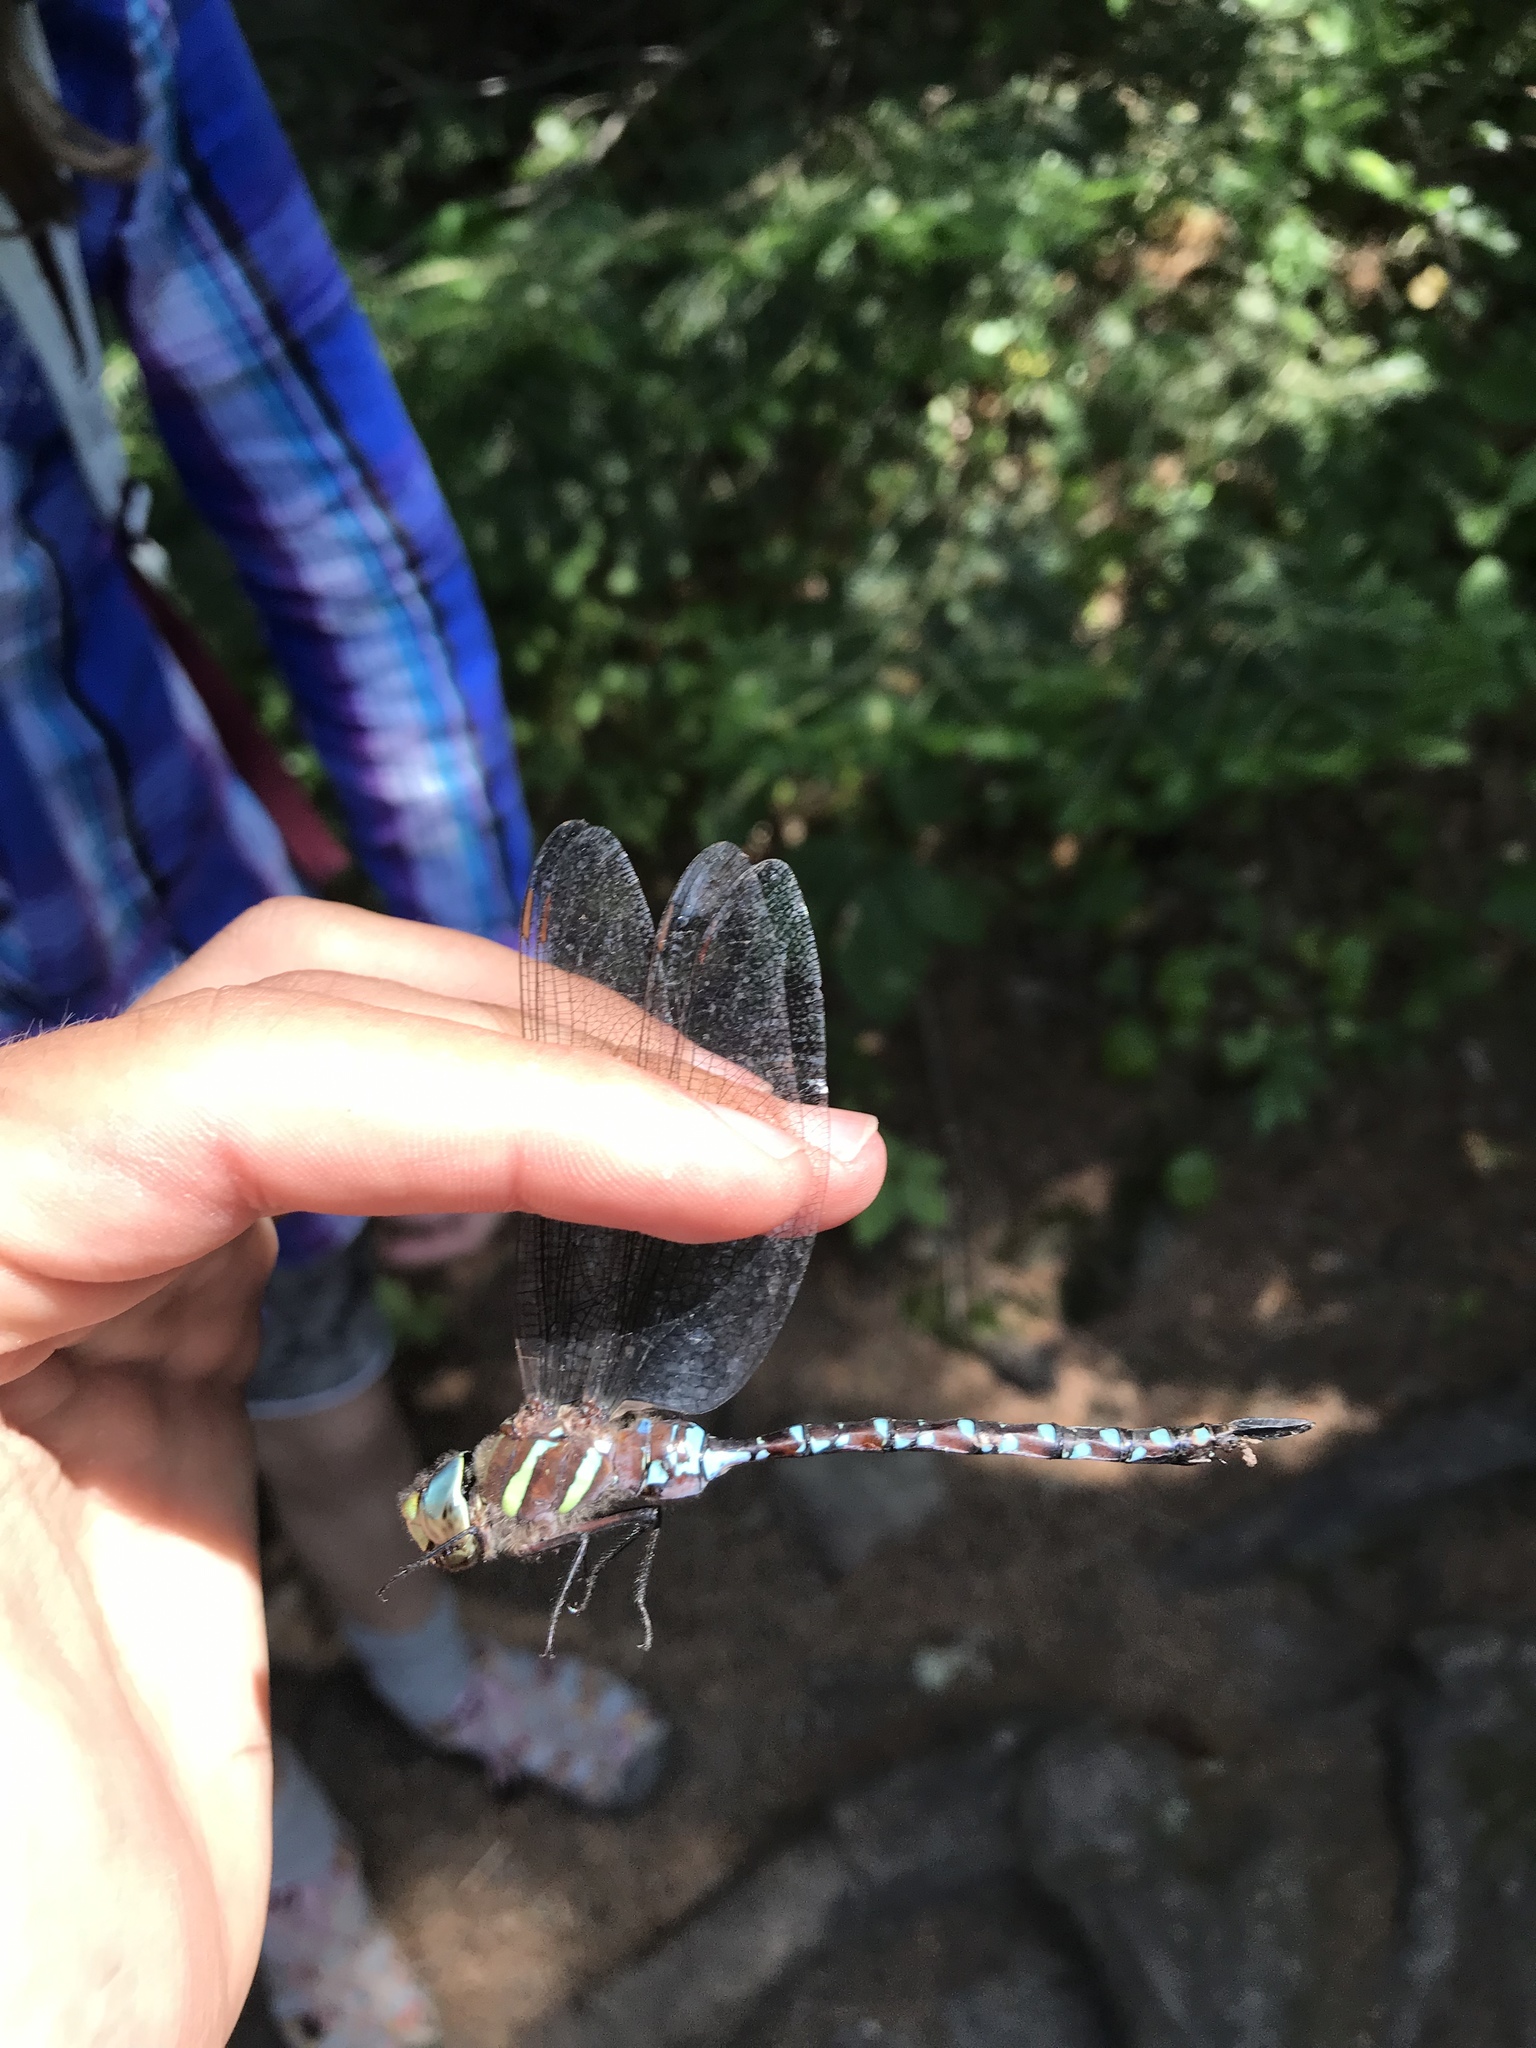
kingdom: Animalia
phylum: Arthropoda
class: Insecta
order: Odonata
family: Aeshnidae
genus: Aeshna
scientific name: Aeshna tuberculifera
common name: Aeschne à tubercules
